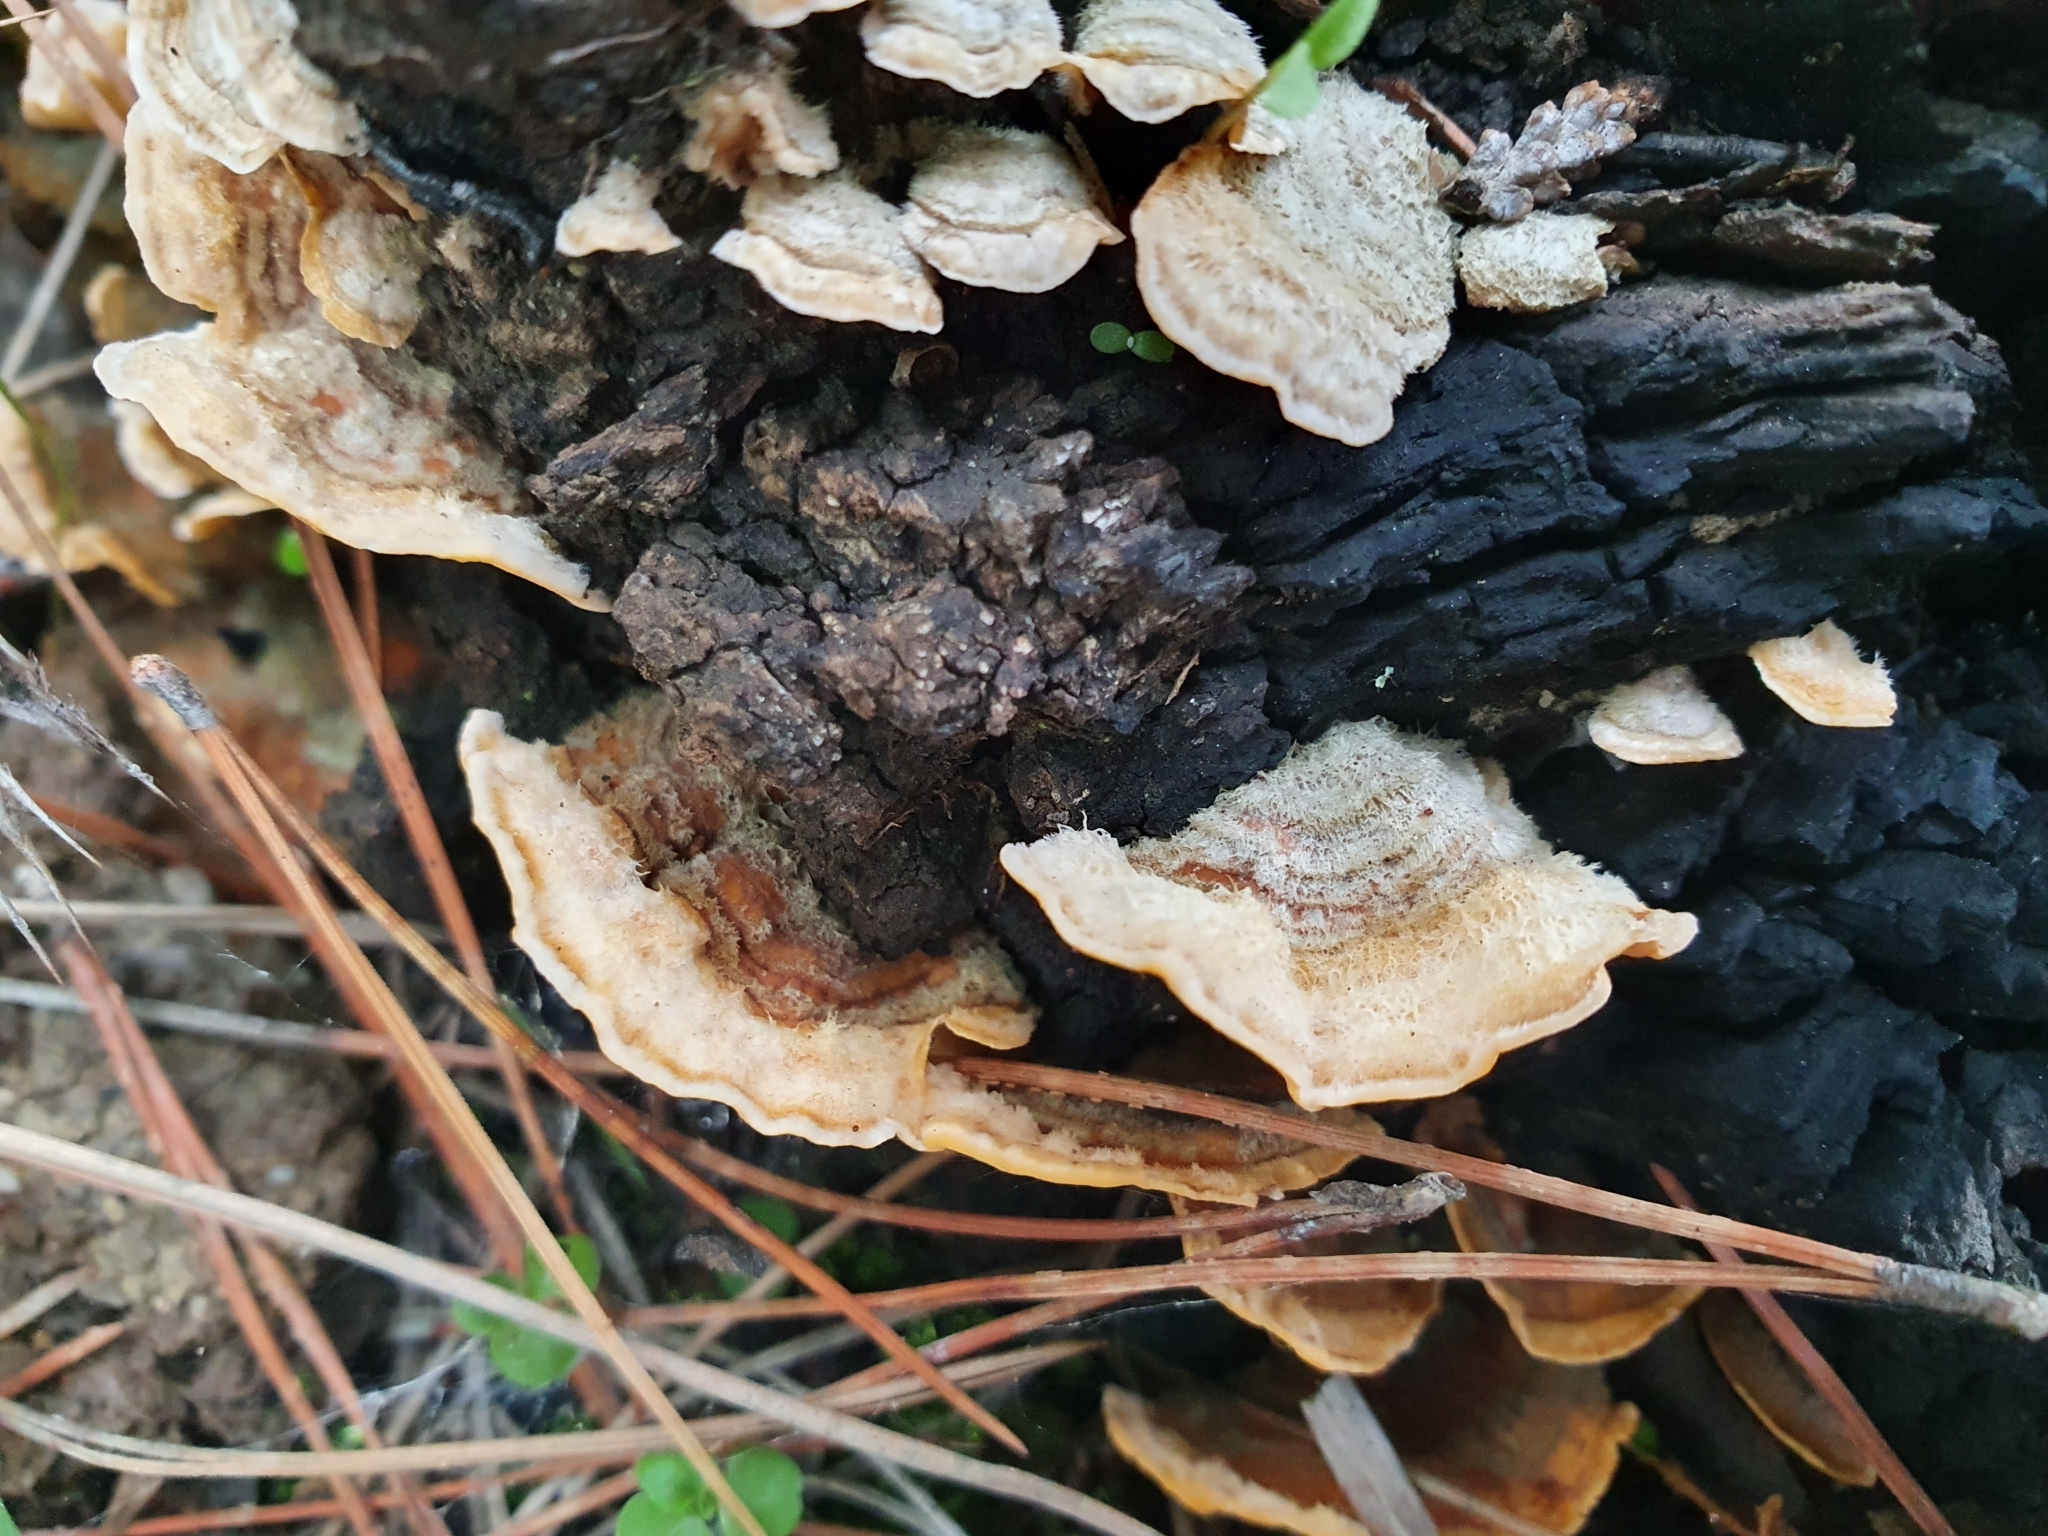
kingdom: Fungi
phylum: Basidiomycota
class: Agaricomycetes
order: Russulales
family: Stereaceae
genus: Stereum
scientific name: Stereum hirsutum
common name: Hairy curtain crust
